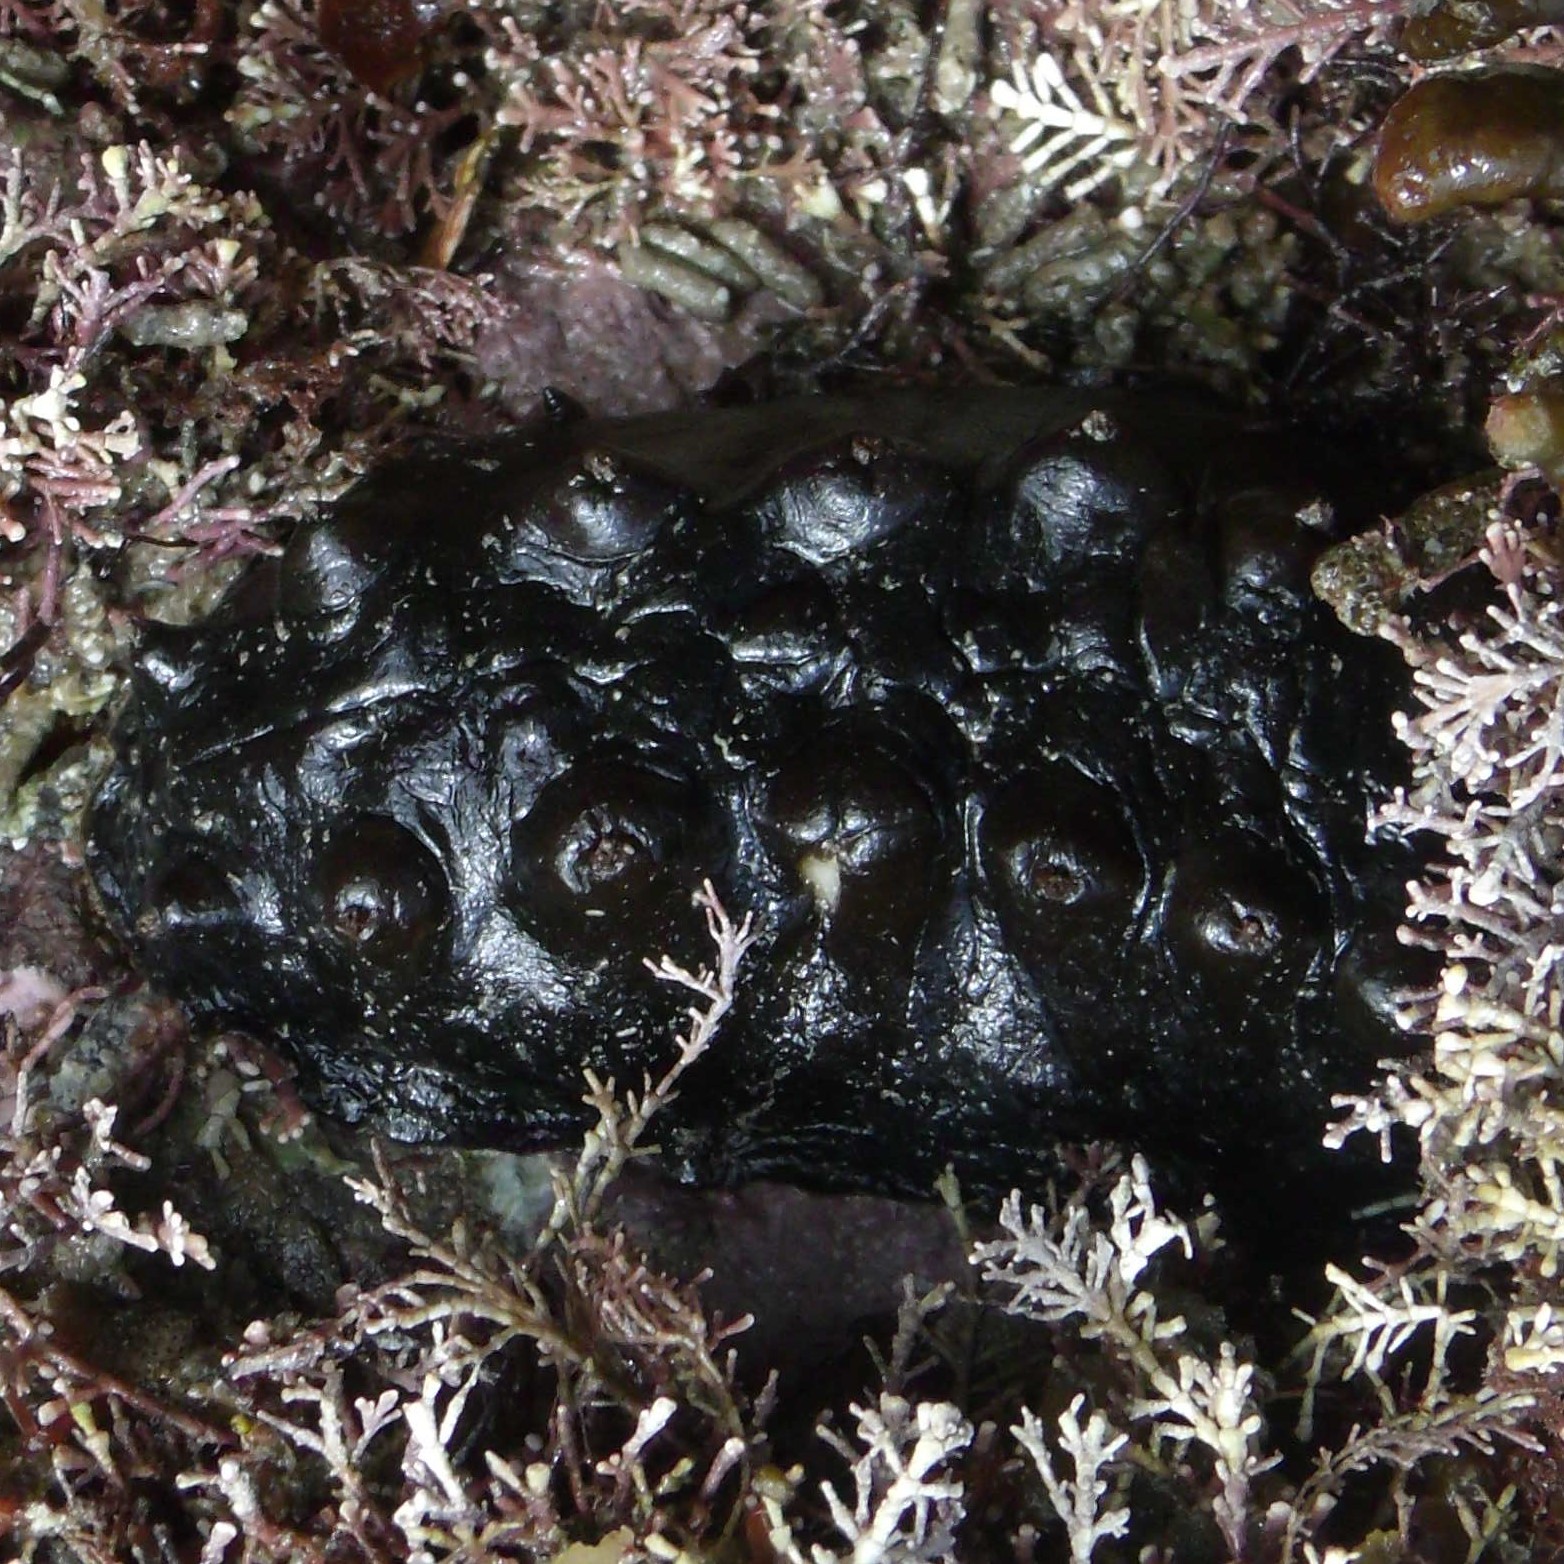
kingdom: Animalia
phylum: Mollusca
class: Polyplacophora
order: Chitonida
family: Acanthochitonidae
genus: Cryptoconchus
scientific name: Cryptoconchus porosus
